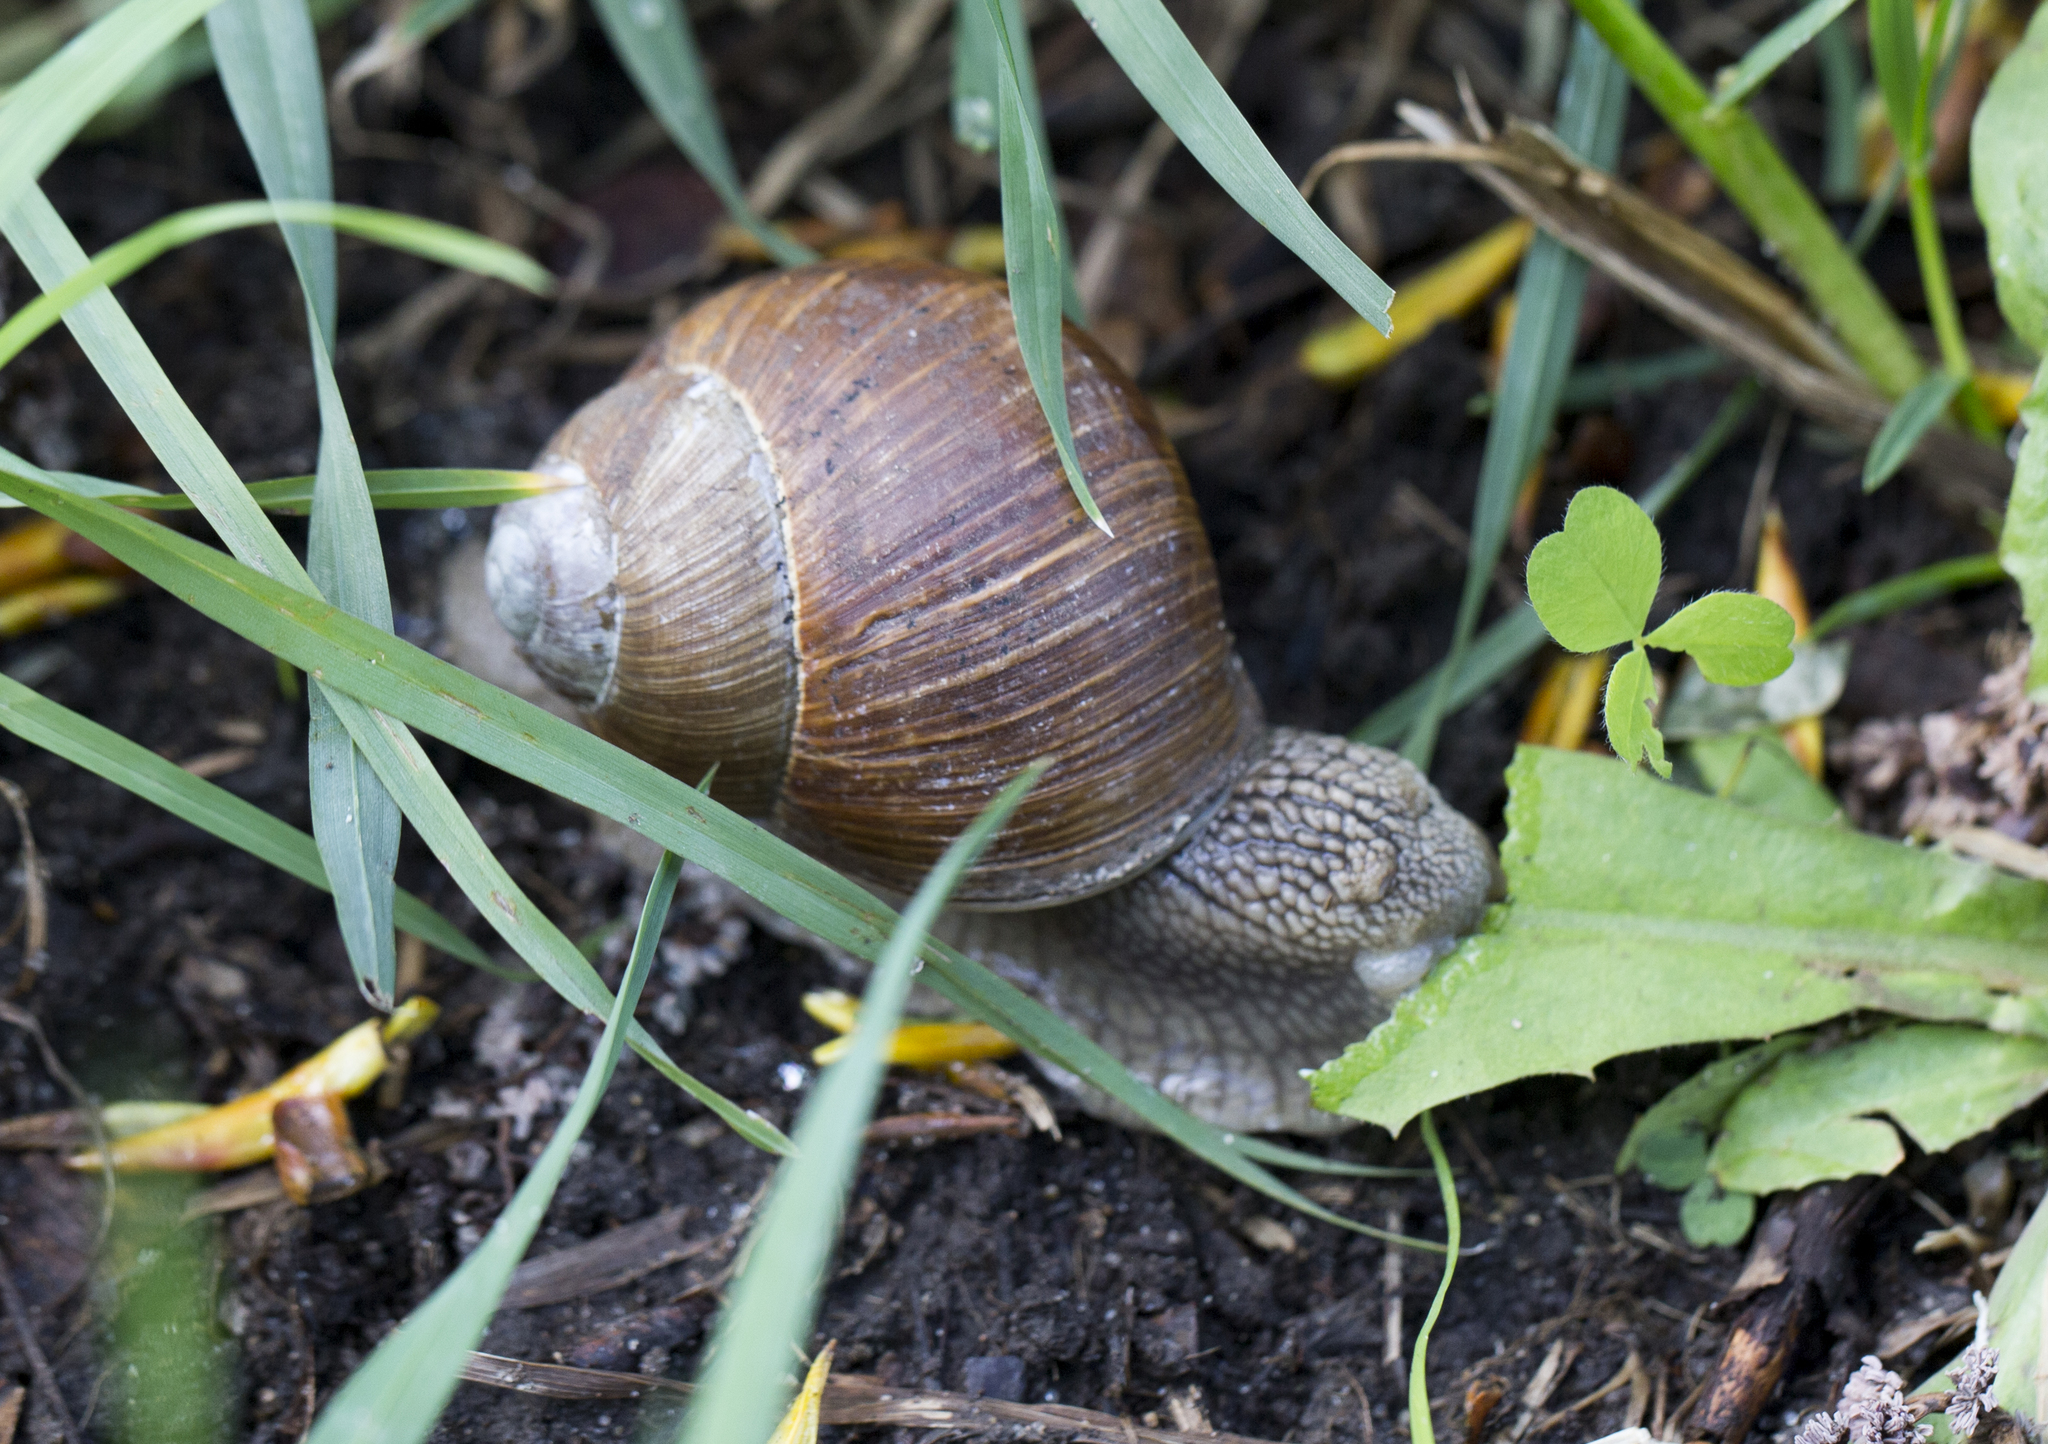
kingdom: Animalia
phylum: Mollusca
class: Gastropoda
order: Stylommatophora
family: Helicidae
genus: Helix
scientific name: Helix pomatia
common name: Roman snail
